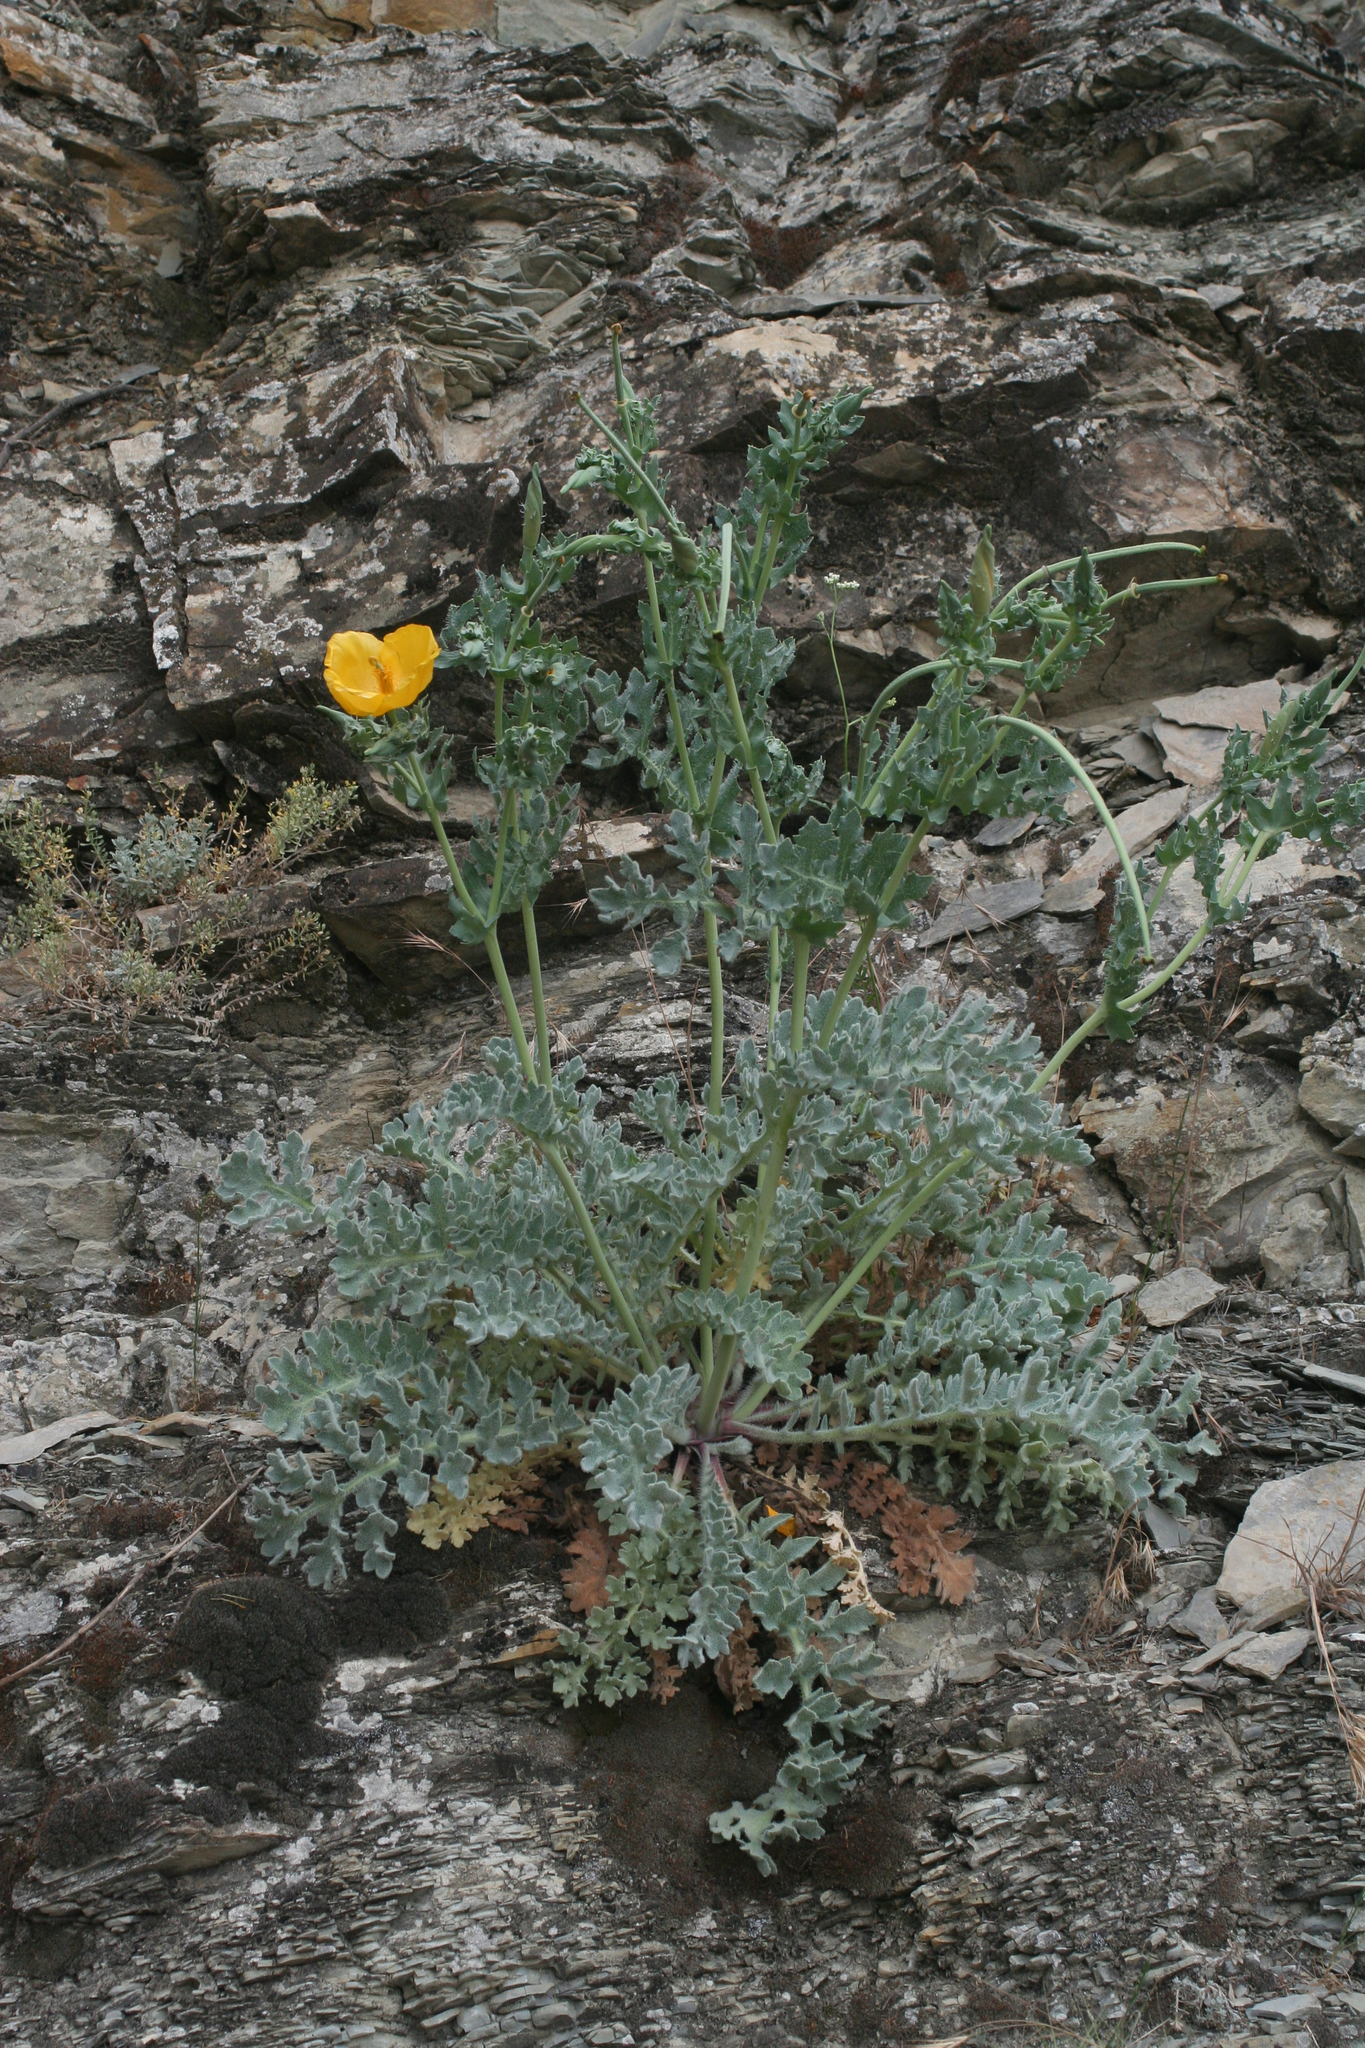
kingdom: Plantae
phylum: Tracheophyta
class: Magnoliopsida
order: Ranunculales
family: Papaveraceae
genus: Glaucium
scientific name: Glaucium flavum
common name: Yellow horned-poppy
